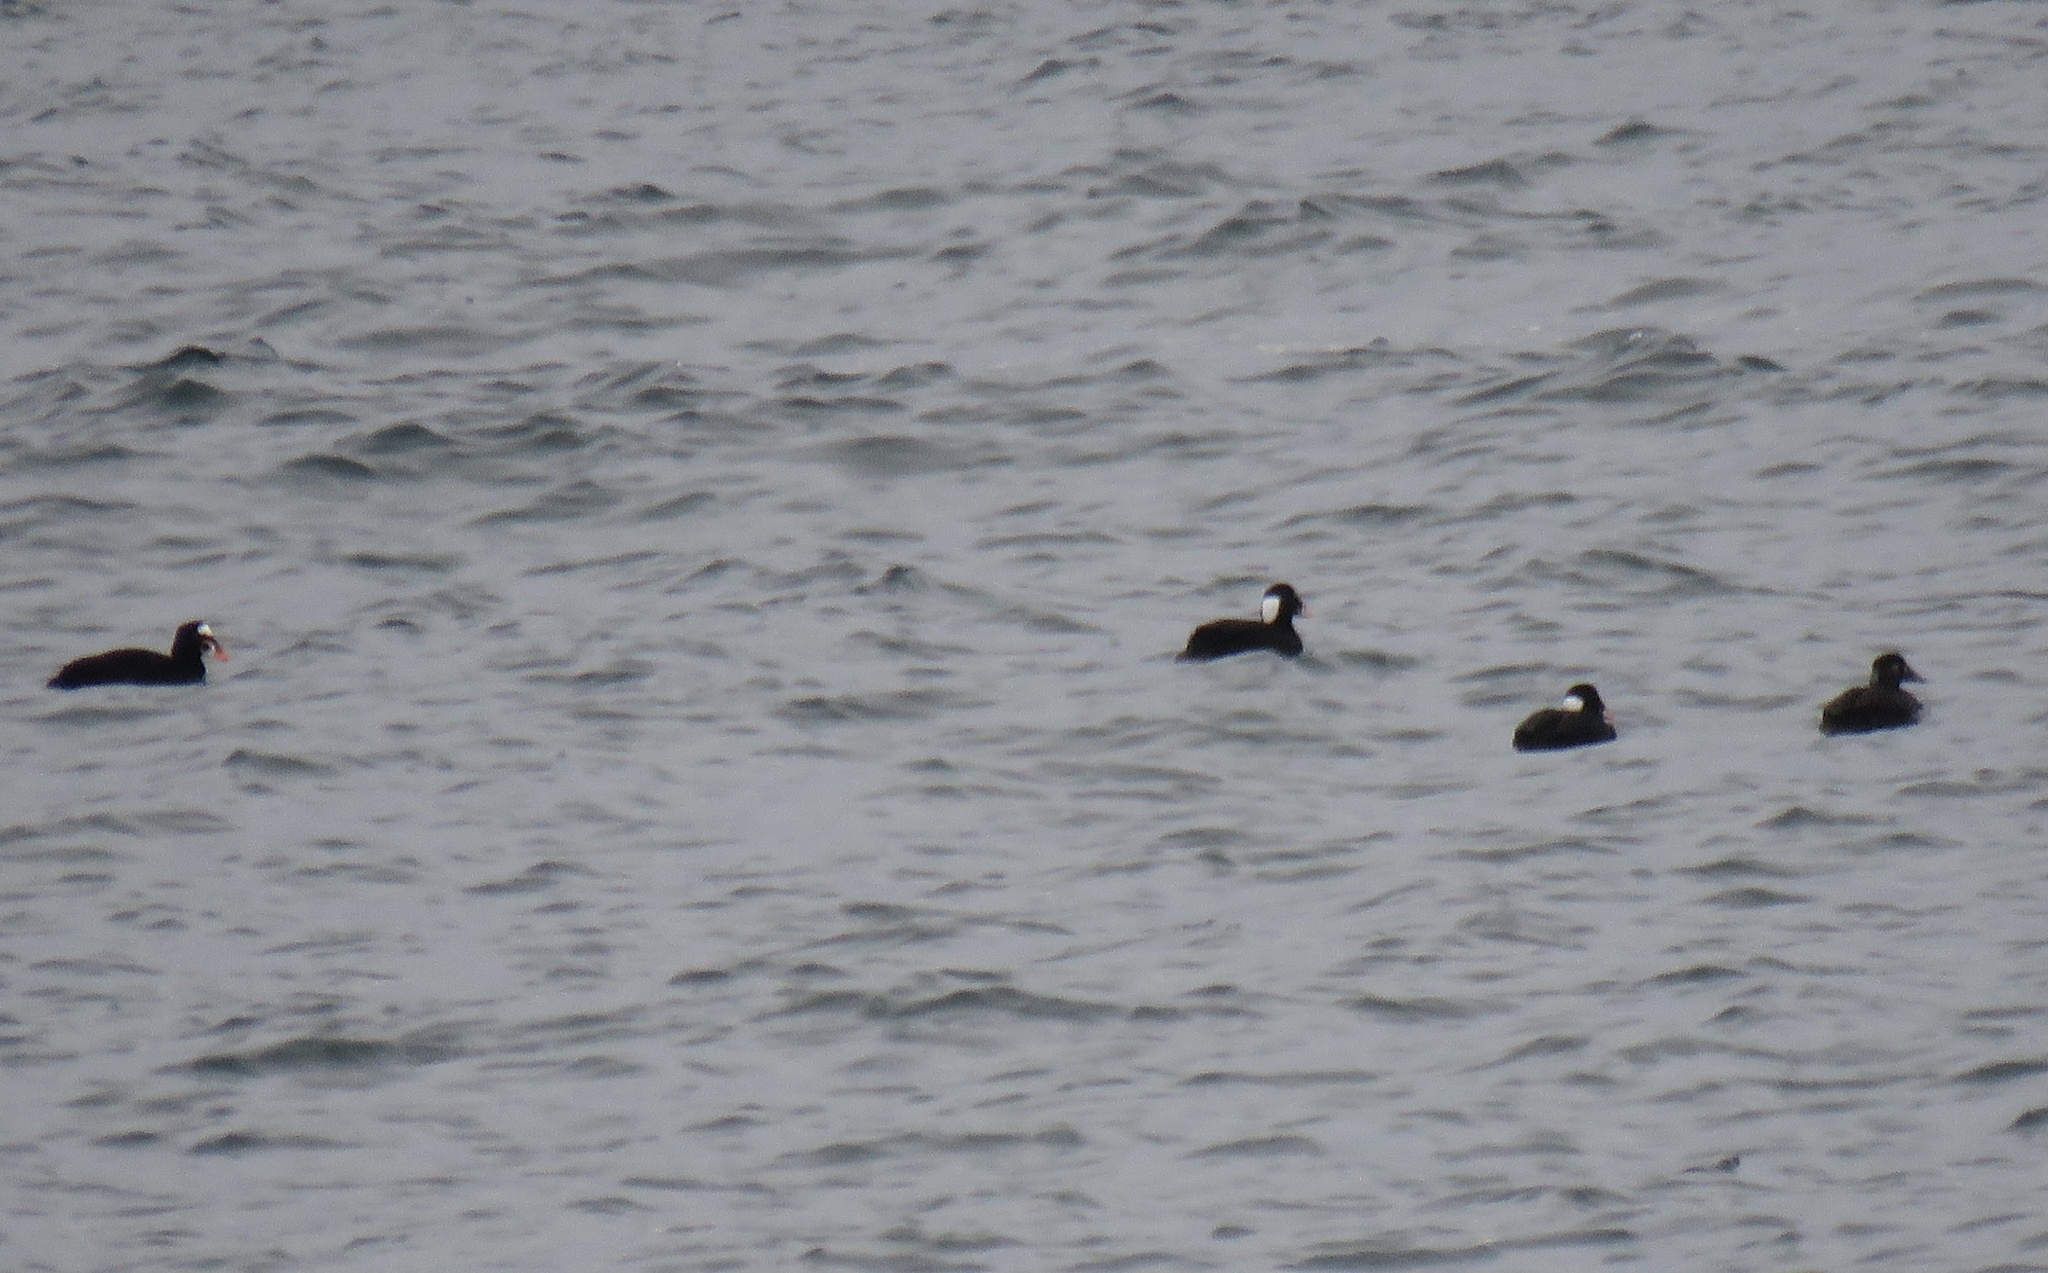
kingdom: Animalia
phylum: Chordata
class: Aves
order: Anseriformes
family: Anatidae
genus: Melanitta
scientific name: Melanitta perspicillata
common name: Surf scoter
